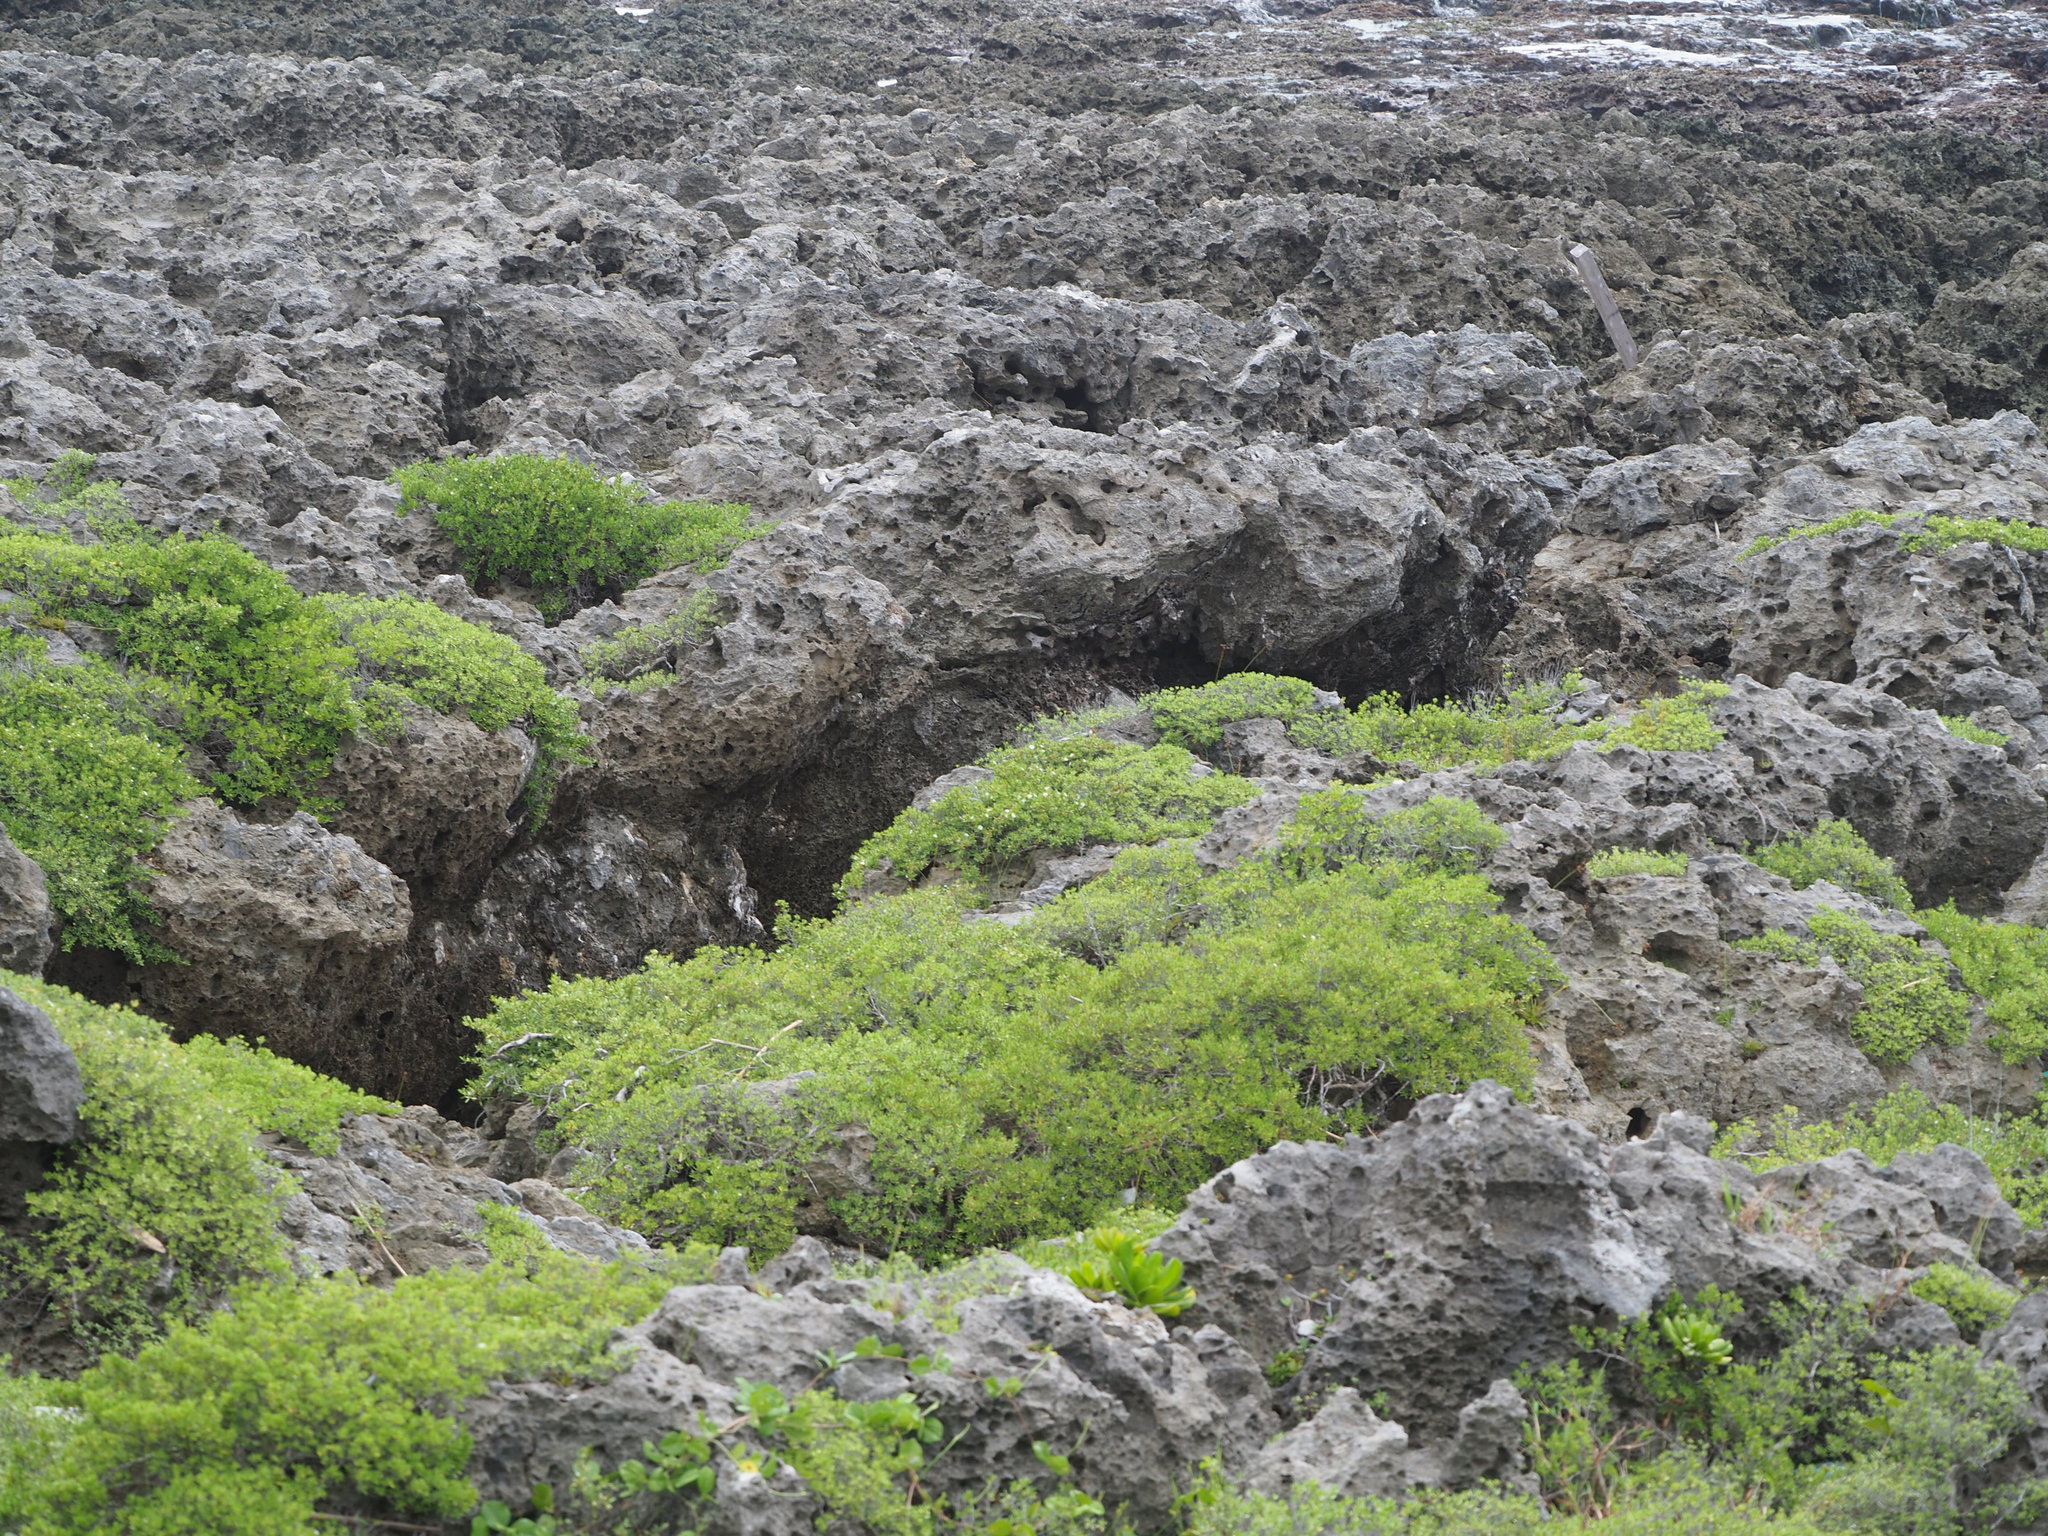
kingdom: Plantae
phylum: Tracheophyta
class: Magnoliopsida
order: Myrtales
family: Lythraceae
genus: Pemphis
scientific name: Pemphis acidula
